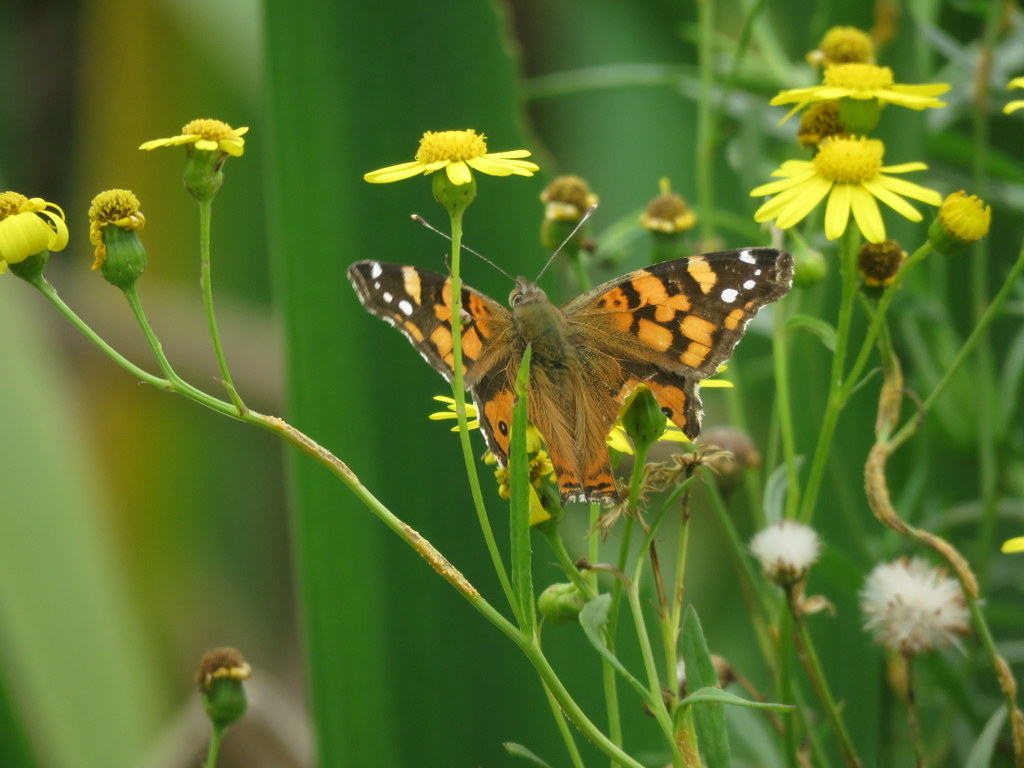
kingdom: Animalia
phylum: Arthropoda
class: Insecta
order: Lepidoptera
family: Nymphalidae
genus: Vanessa
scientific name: Vanessa carye
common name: Subtropical lady
